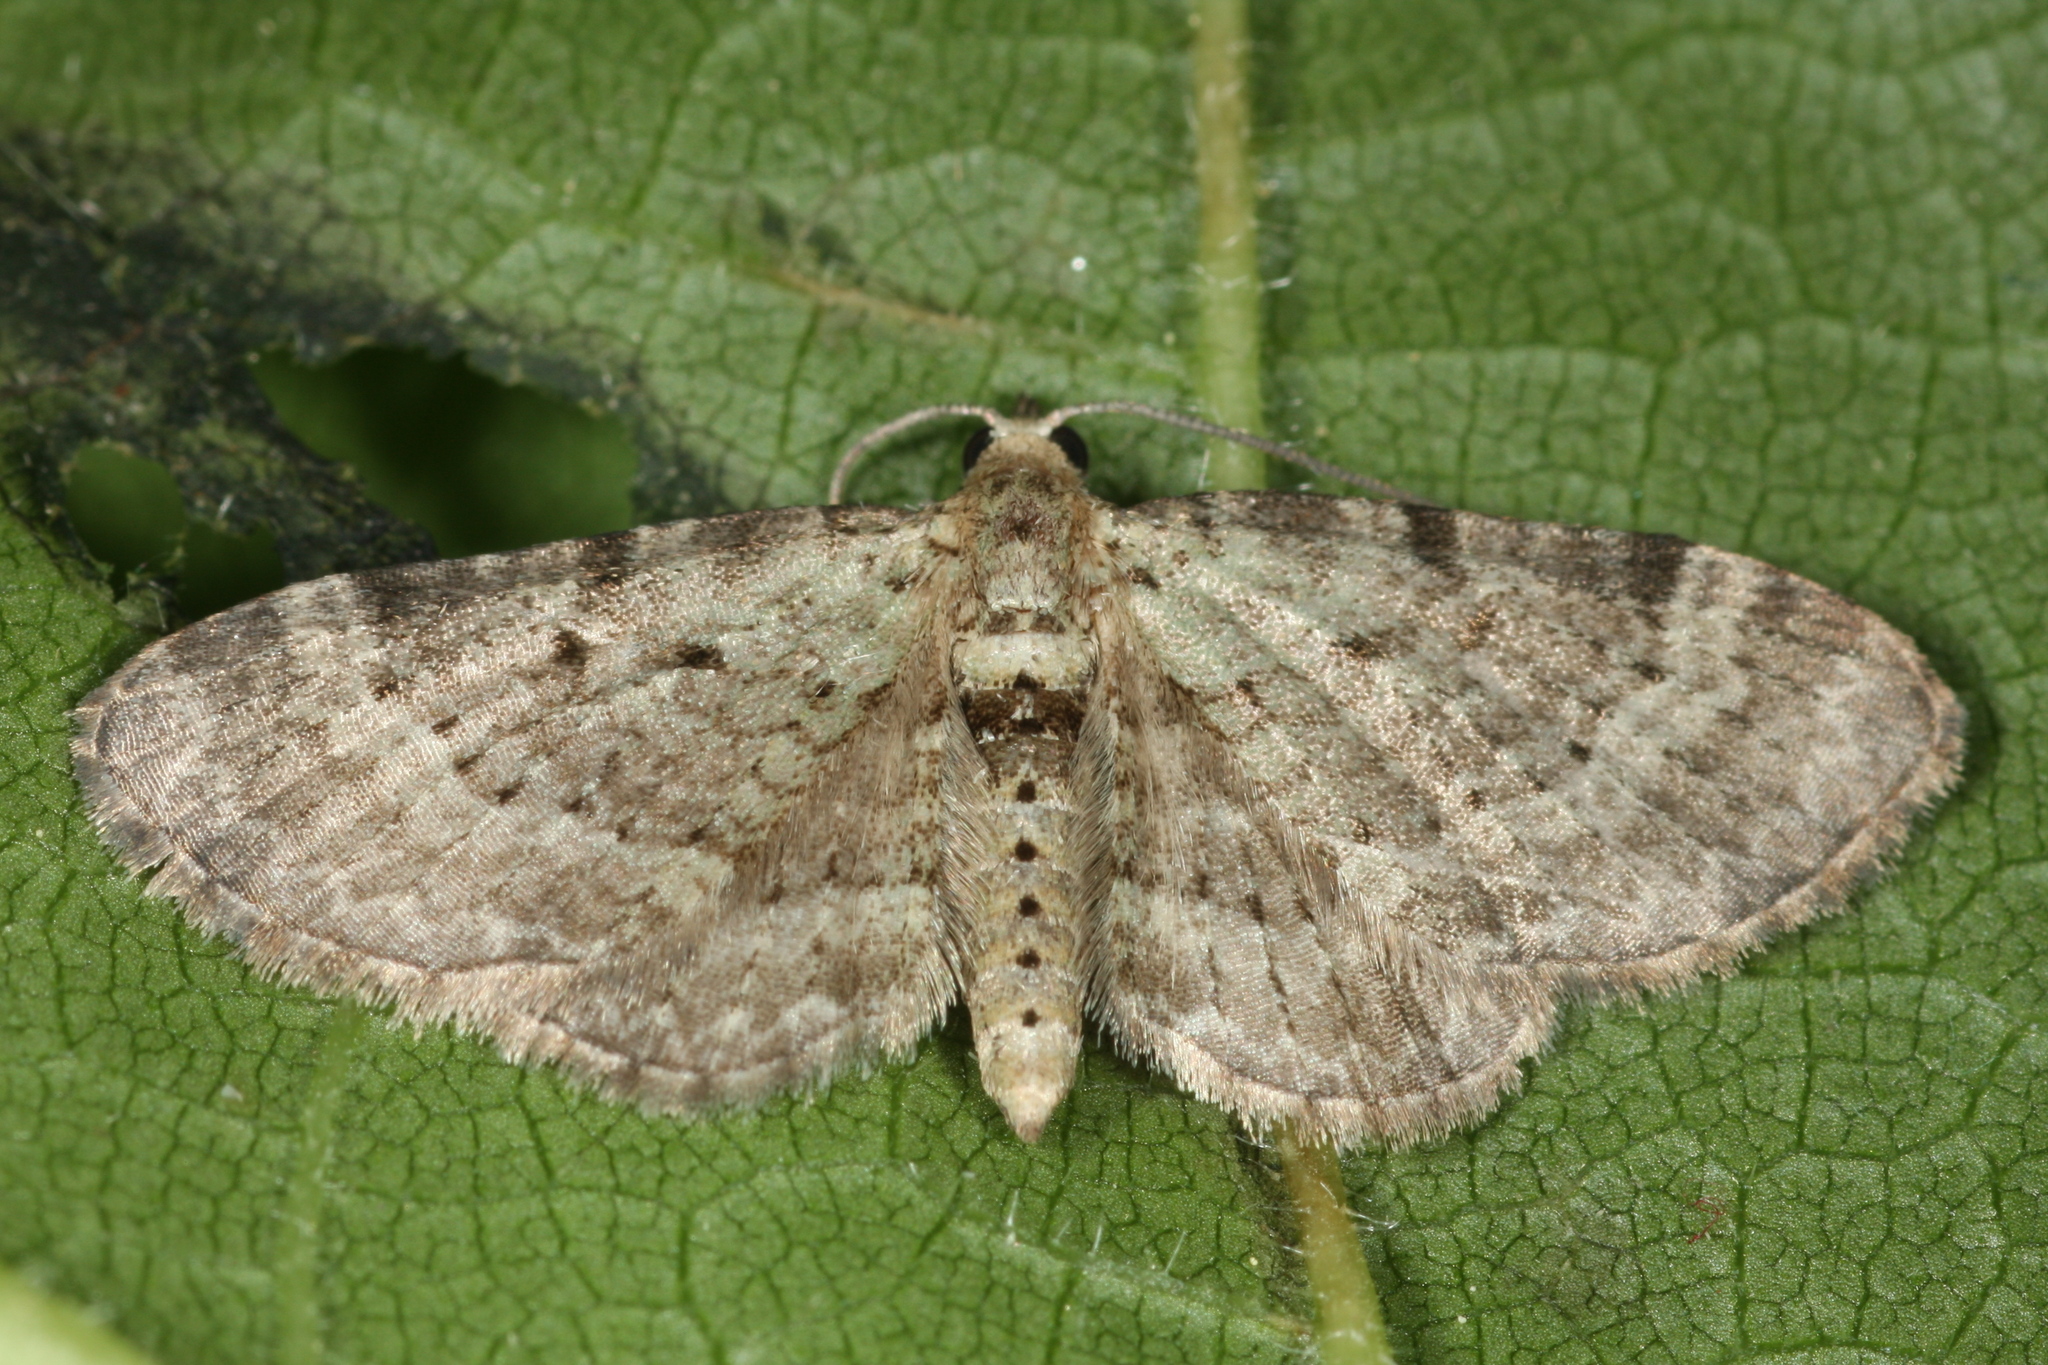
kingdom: Animalia
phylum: Arthropoda
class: Insecta
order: Lepidoptera
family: Geometridae
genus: Pasiphila
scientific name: Pasiphila debiliata
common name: Bilberry pug
